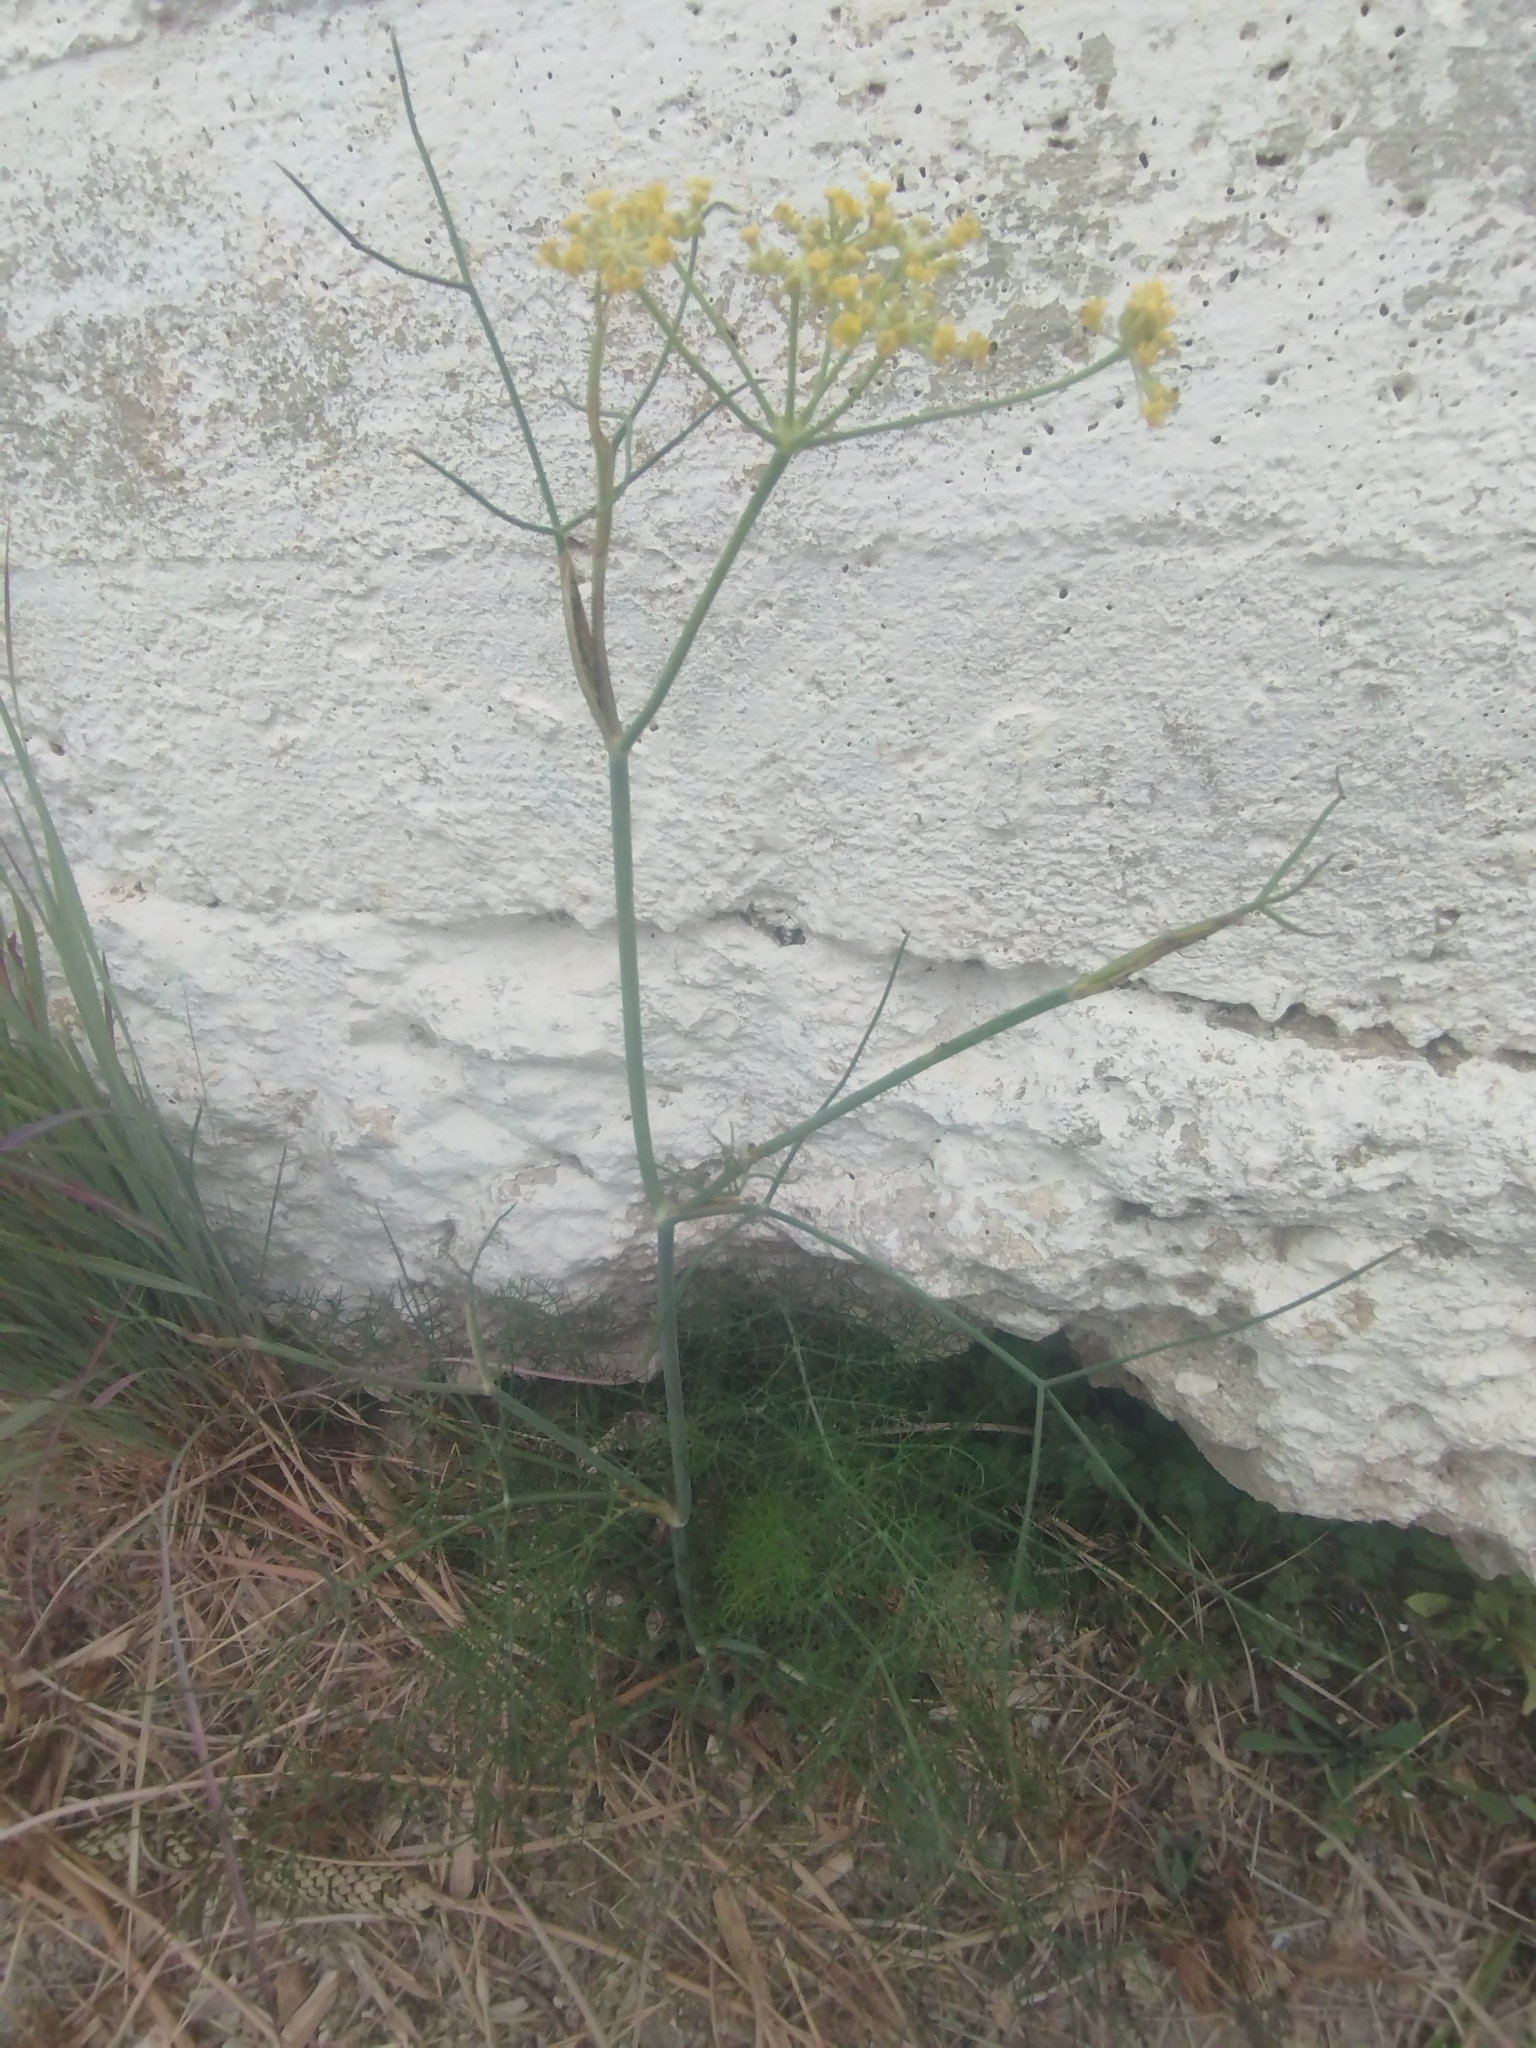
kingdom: Plantae
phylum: Tracheophyta
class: Magnoliopsida
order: Apiales
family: Apiaceae
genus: Foeniculum
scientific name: Foeniculum vulgare
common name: Fennel
